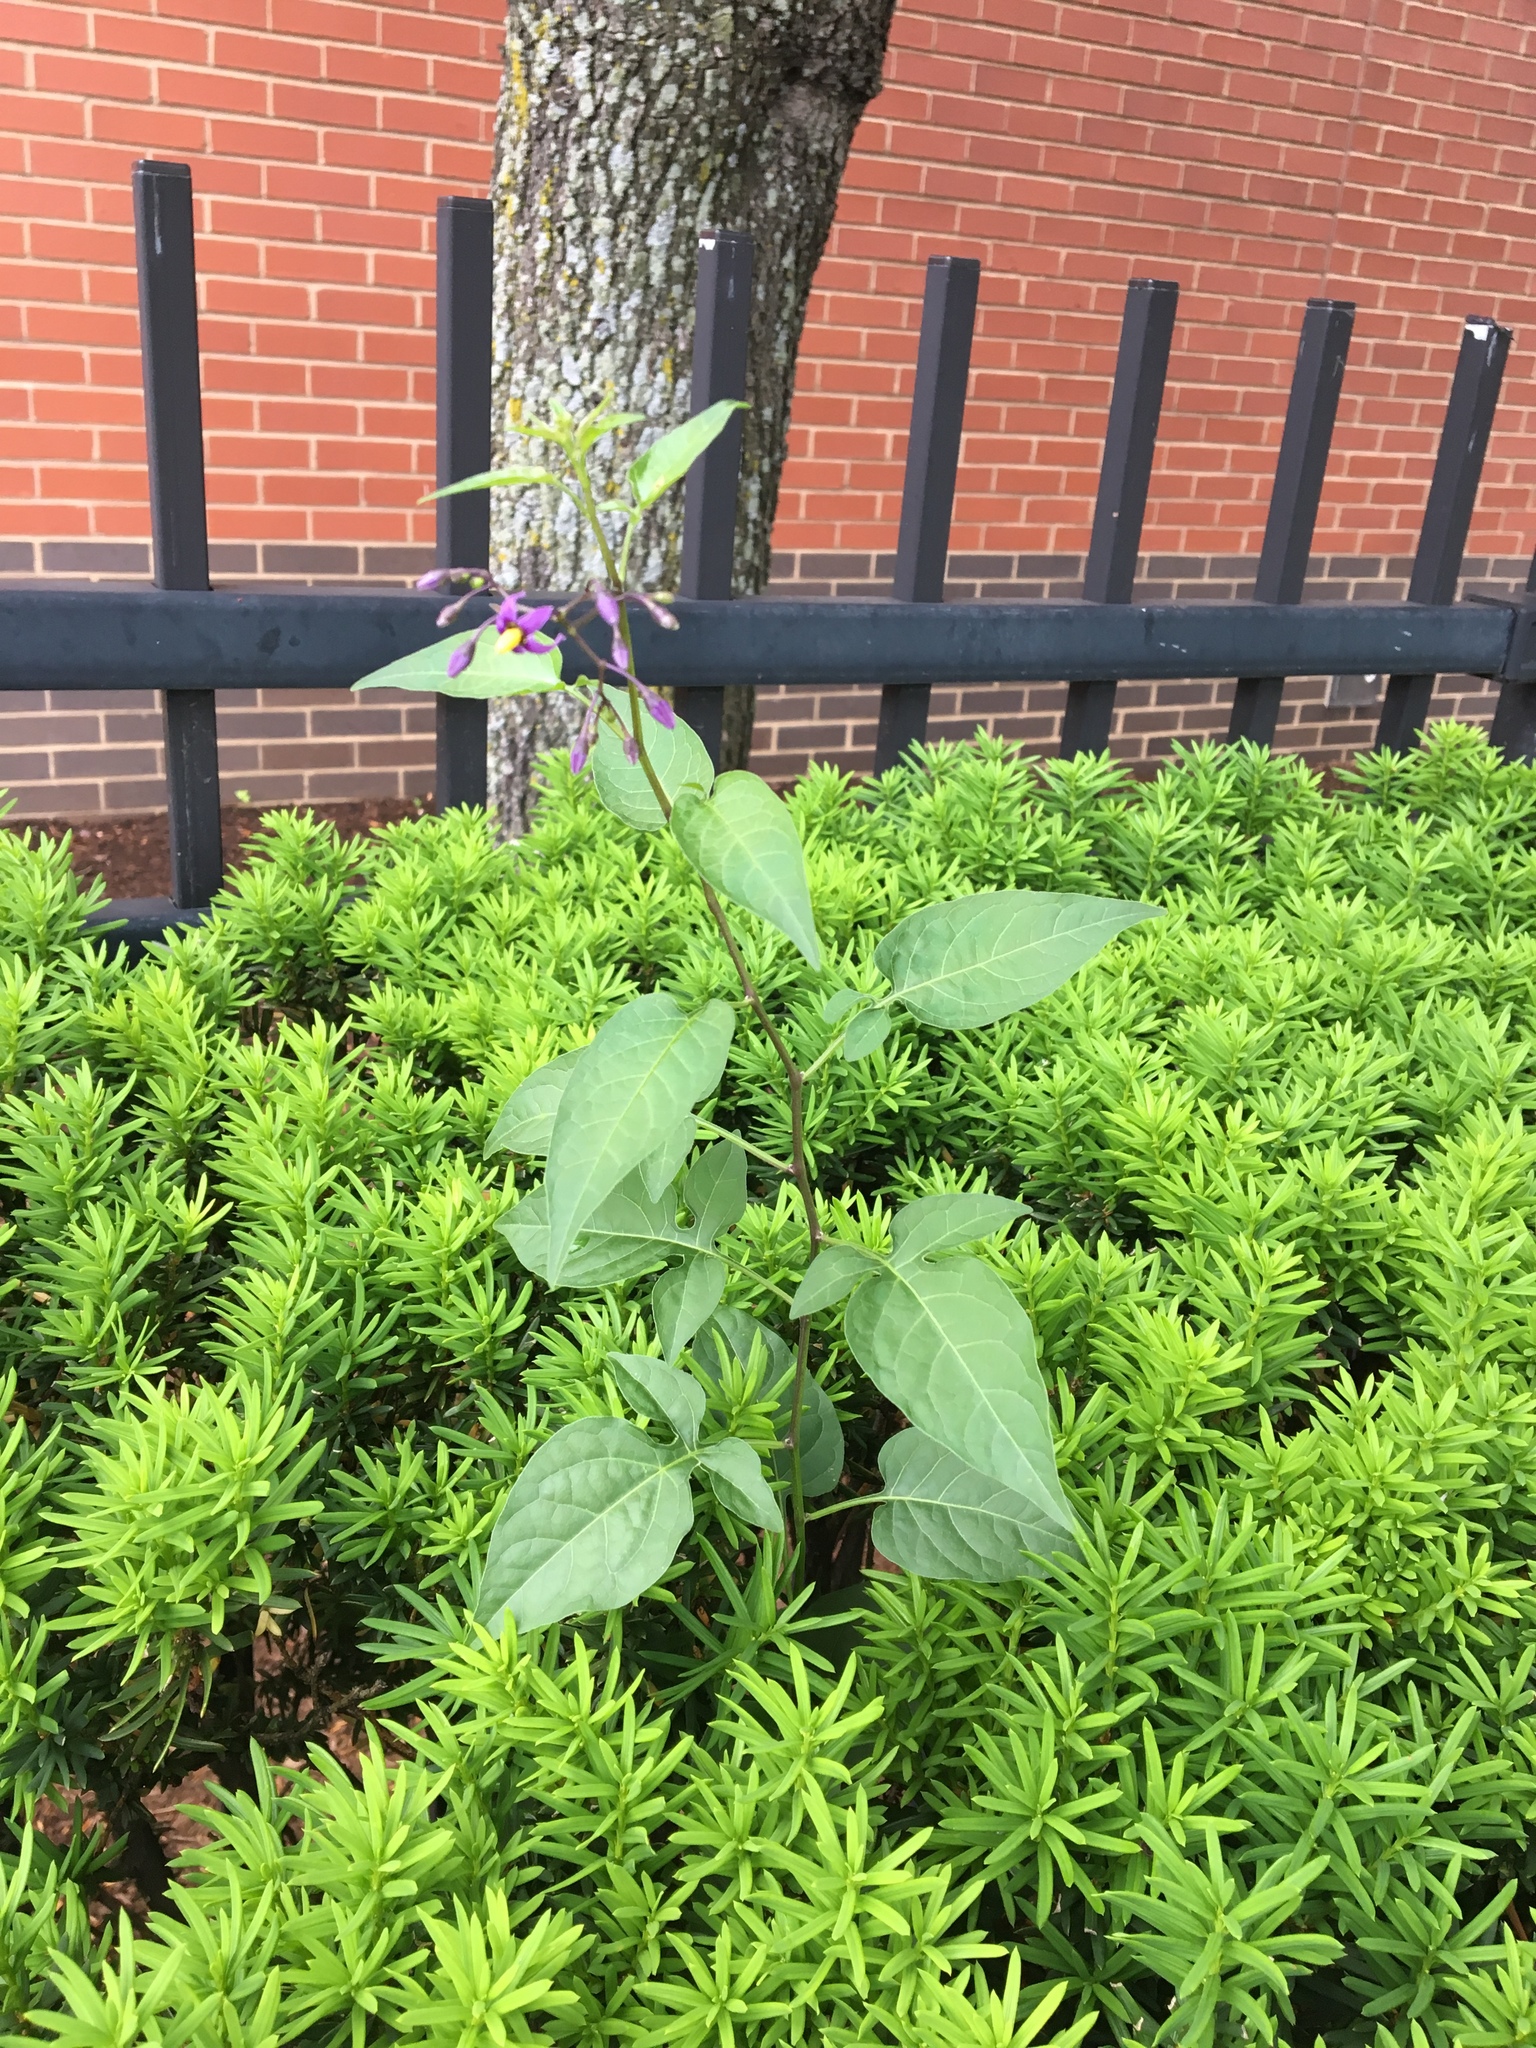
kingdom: Plantae
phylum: Tracheophyta
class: Magnoliopsida
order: Solanales
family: Solanaceae
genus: Solanum
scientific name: Solanum dulcamara
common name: Climbing nightshade
